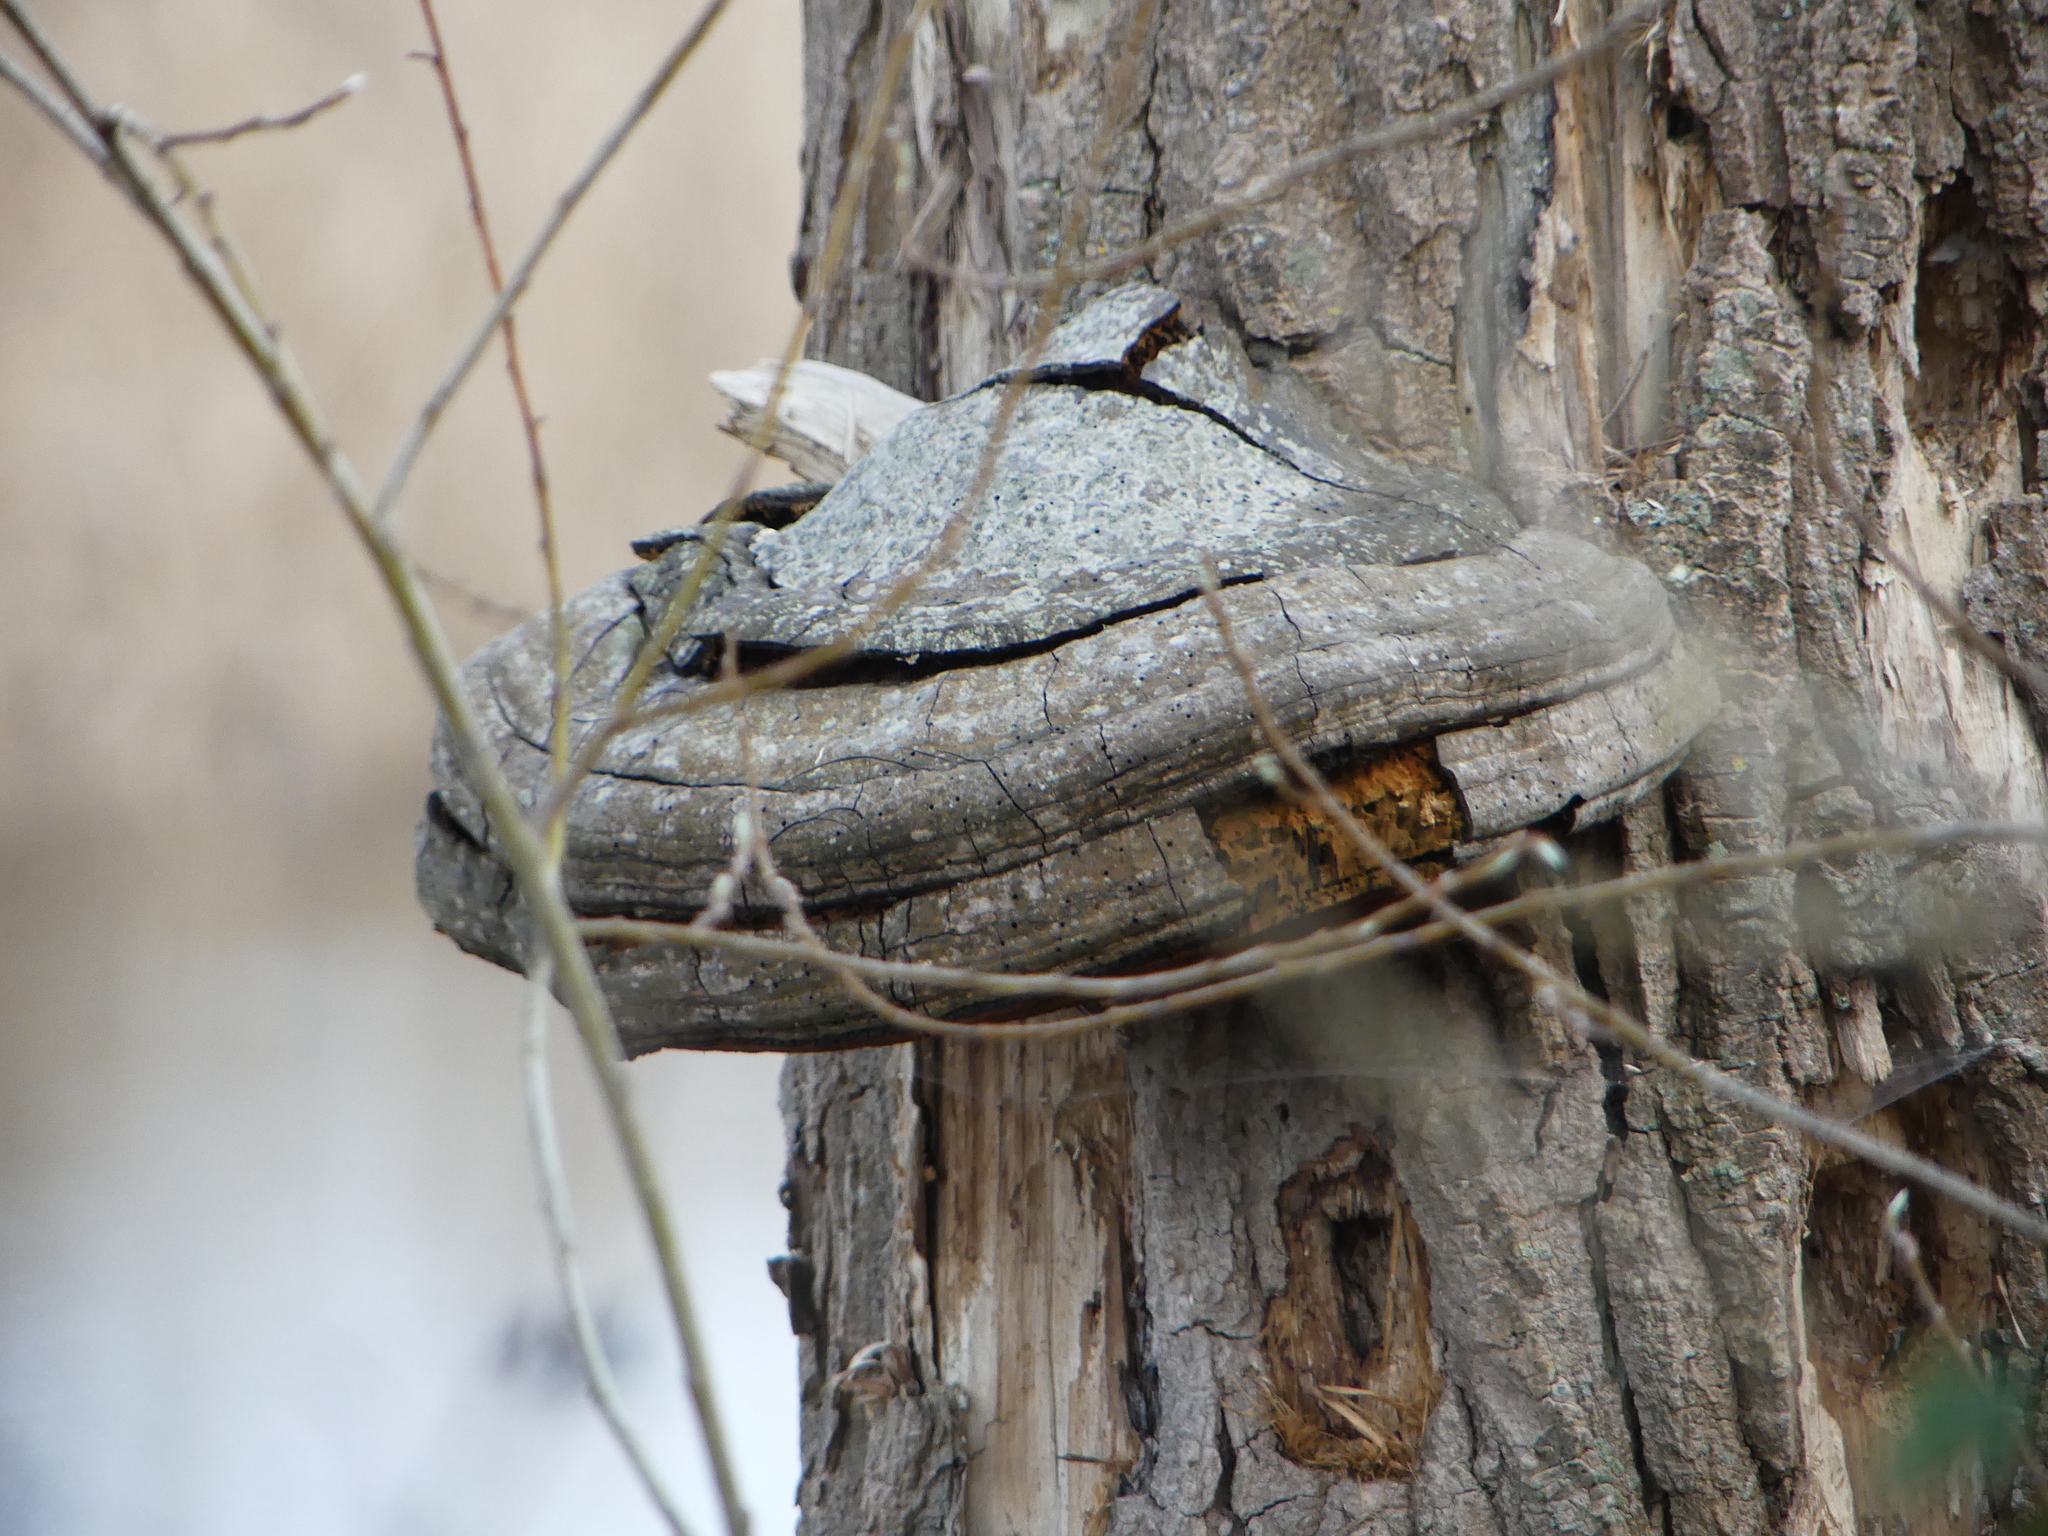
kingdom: Fungi
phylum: Basidiomycota
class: Agaricomycetes
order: Polyporales
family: Polyporaceae
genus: Fomes
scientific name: Fomes fomentarius
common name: Hoof fungus
